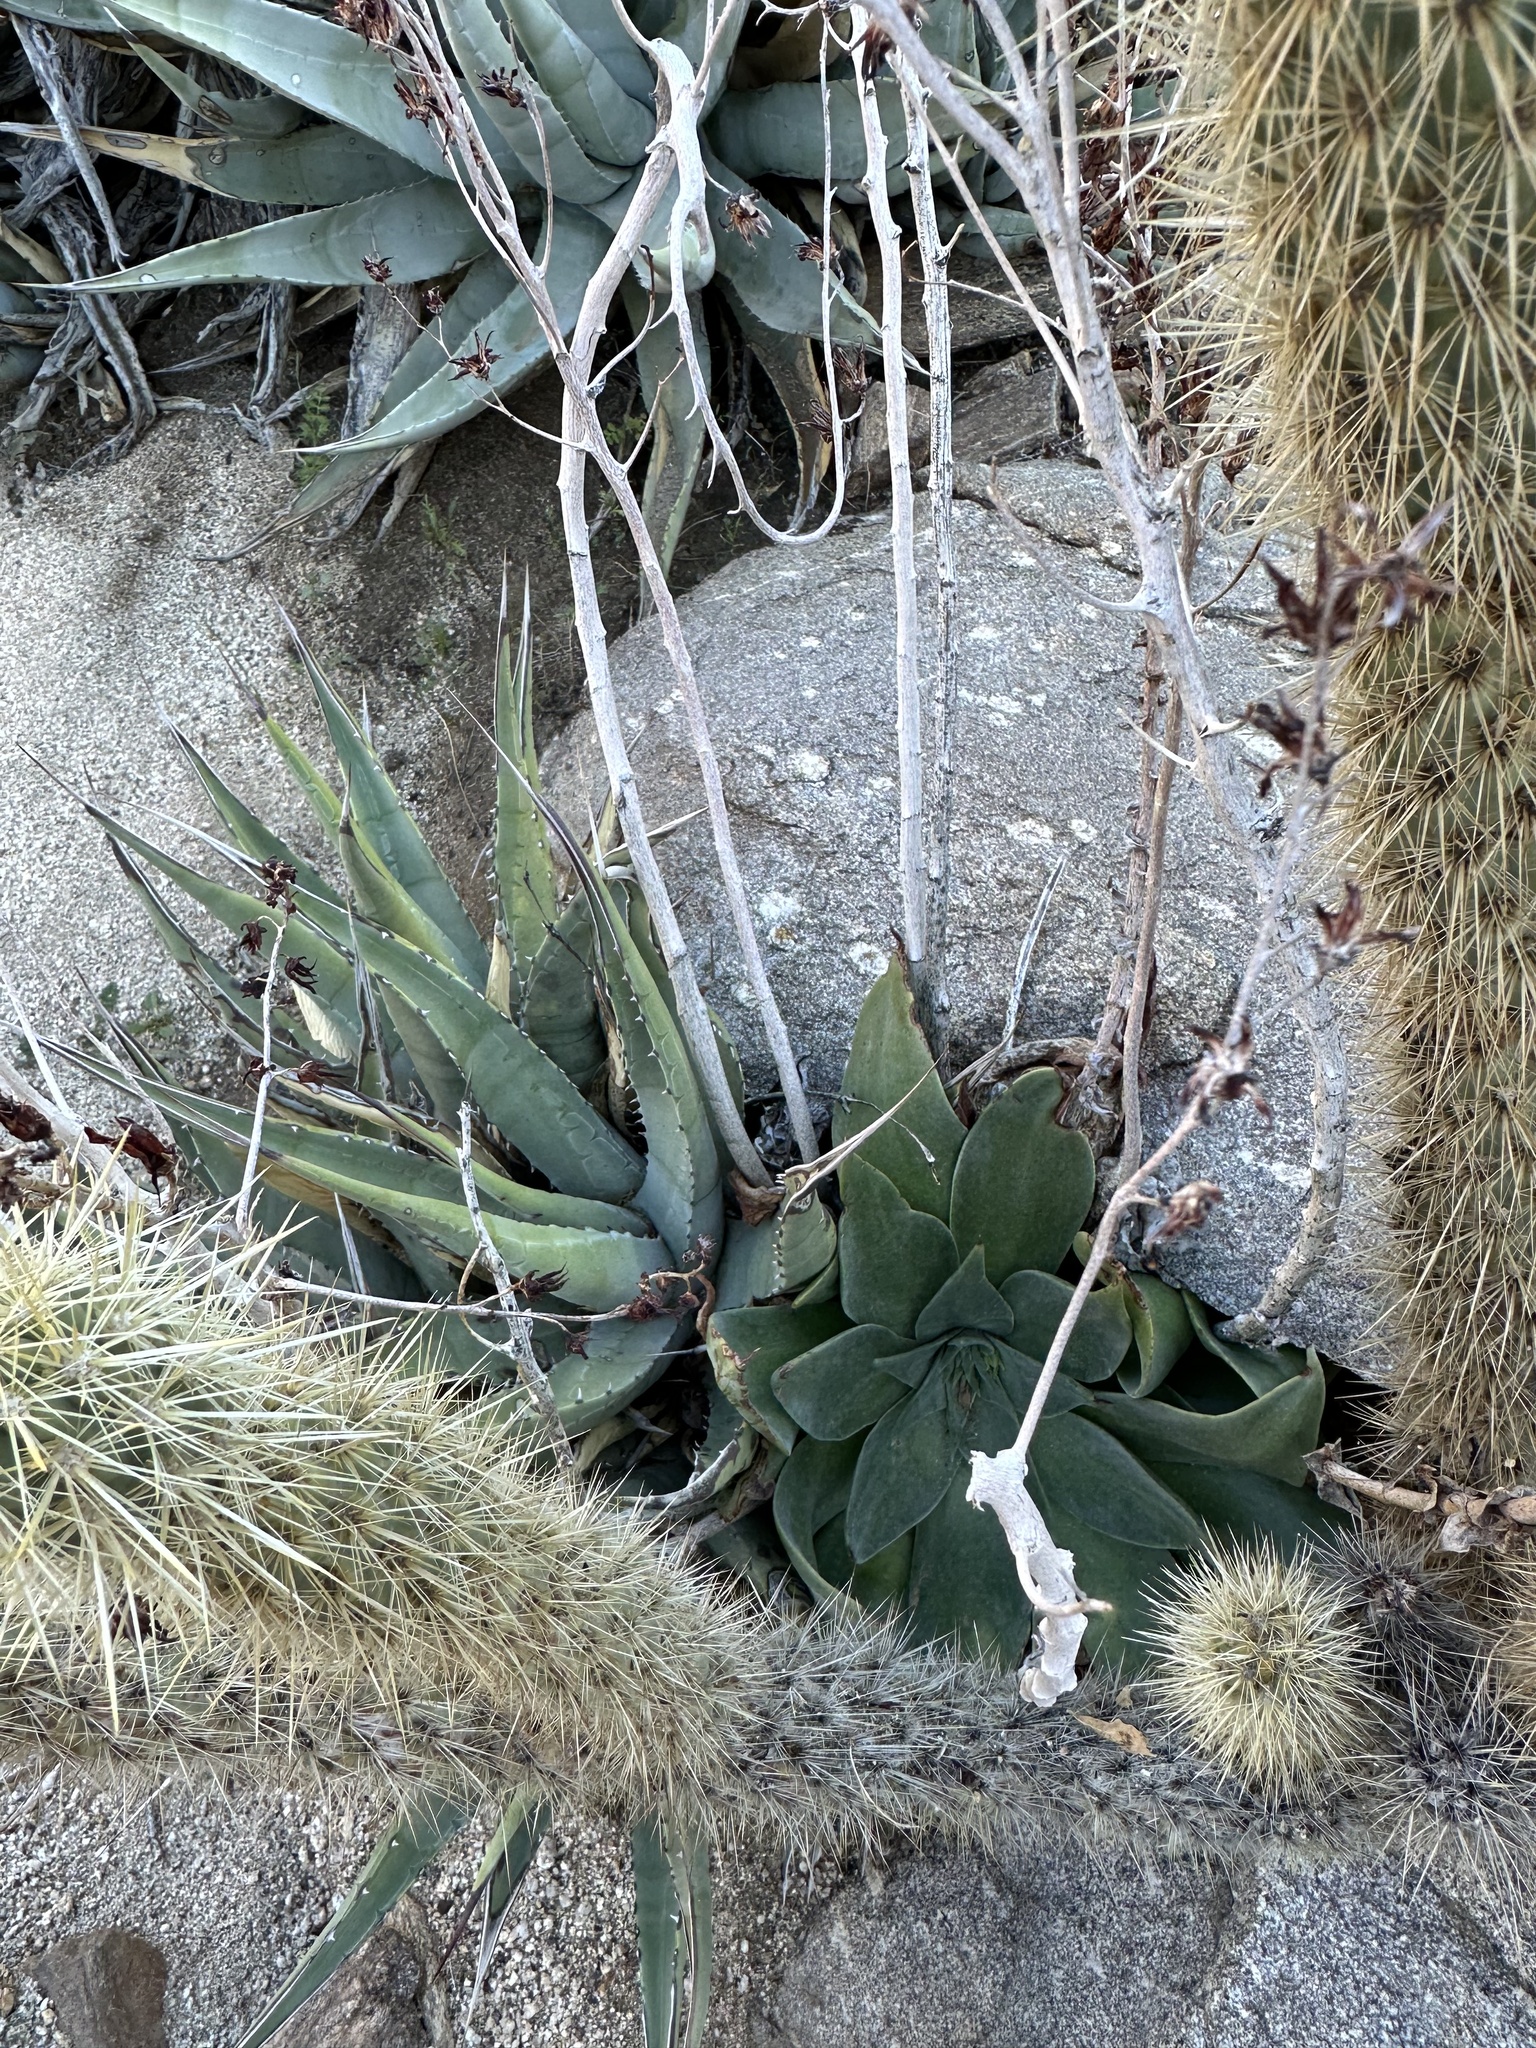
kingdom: Plantae
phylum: Tracheophyta
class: Magnoliopsida
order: Saxifragales
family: Crassulaceae
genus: Dudleya
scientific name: Dudleya arizonica
